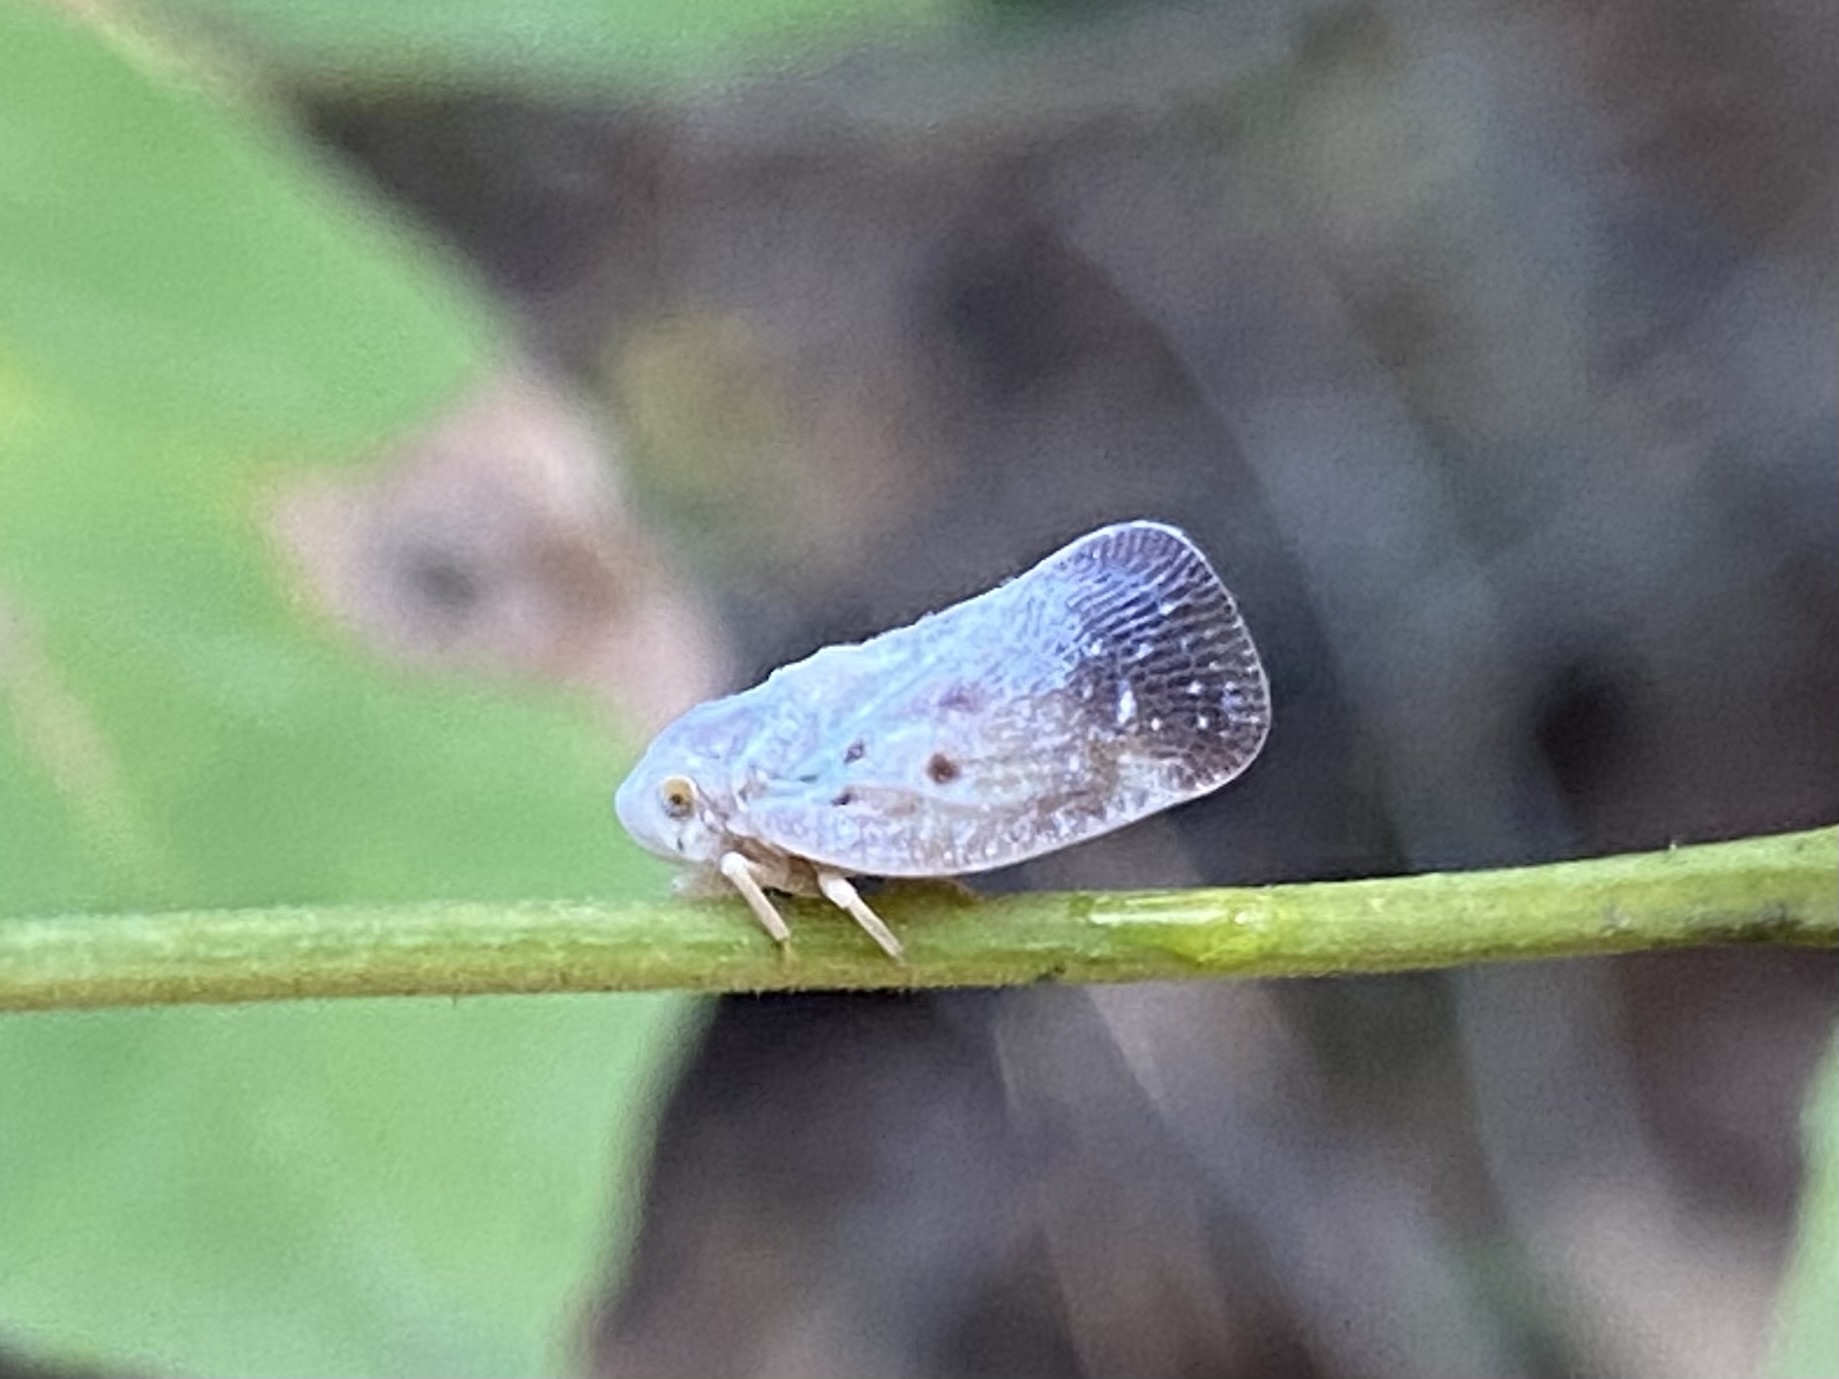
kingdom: Animalia
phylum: Arthropoda
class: Insecta
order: Hemiptera
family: Flatidae
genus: Metcalfa
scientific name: Metcalfa pruinosa
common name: Citrus flatid planthopper
